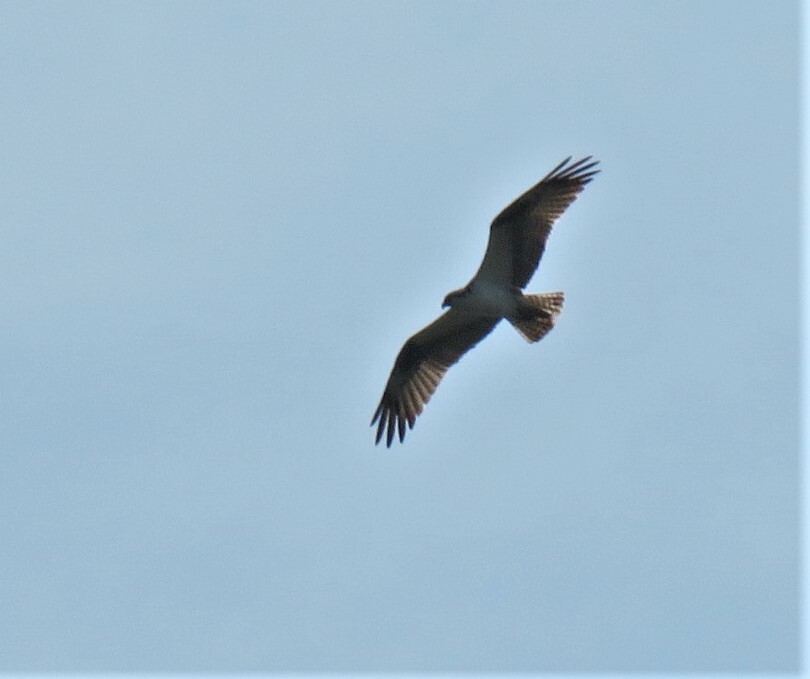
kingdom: Animalia
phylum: Chordata
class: Aves
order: Accipitriformes
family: Pandionidae
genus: Pandion
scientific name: Pandion haliaetus
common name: Osprey
